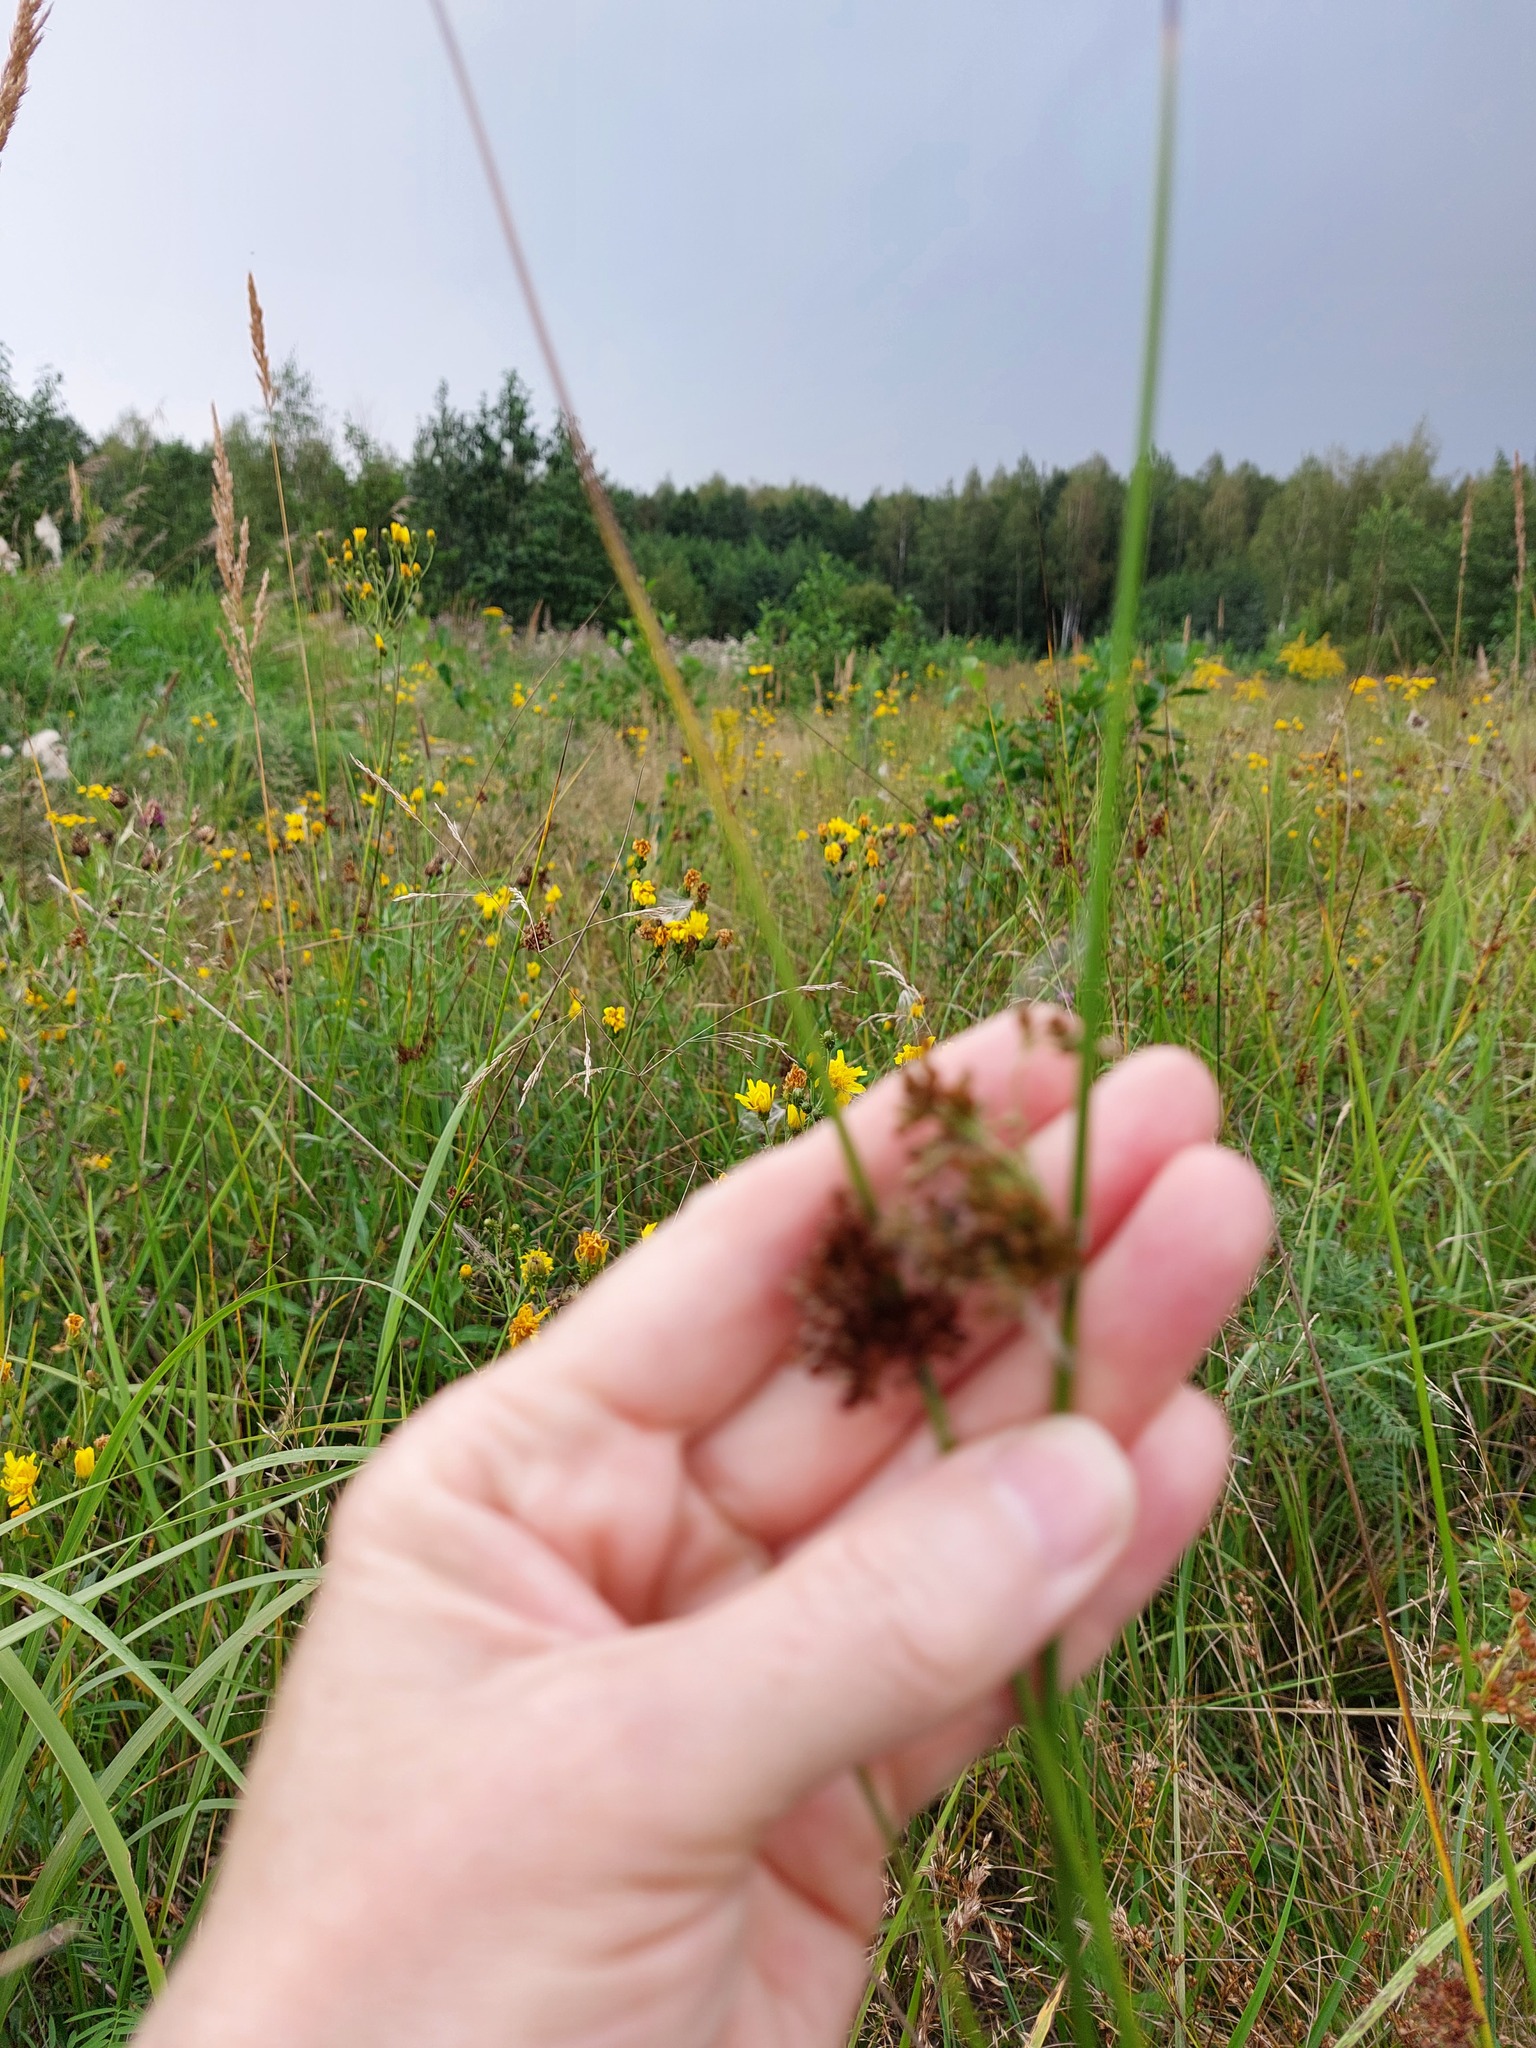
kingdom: Plantae
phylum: Tracheophyta
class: Liliopsida
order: Poales
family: Juncaceae
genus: Juncus
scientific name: Juncus effusus
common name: Soft rush
